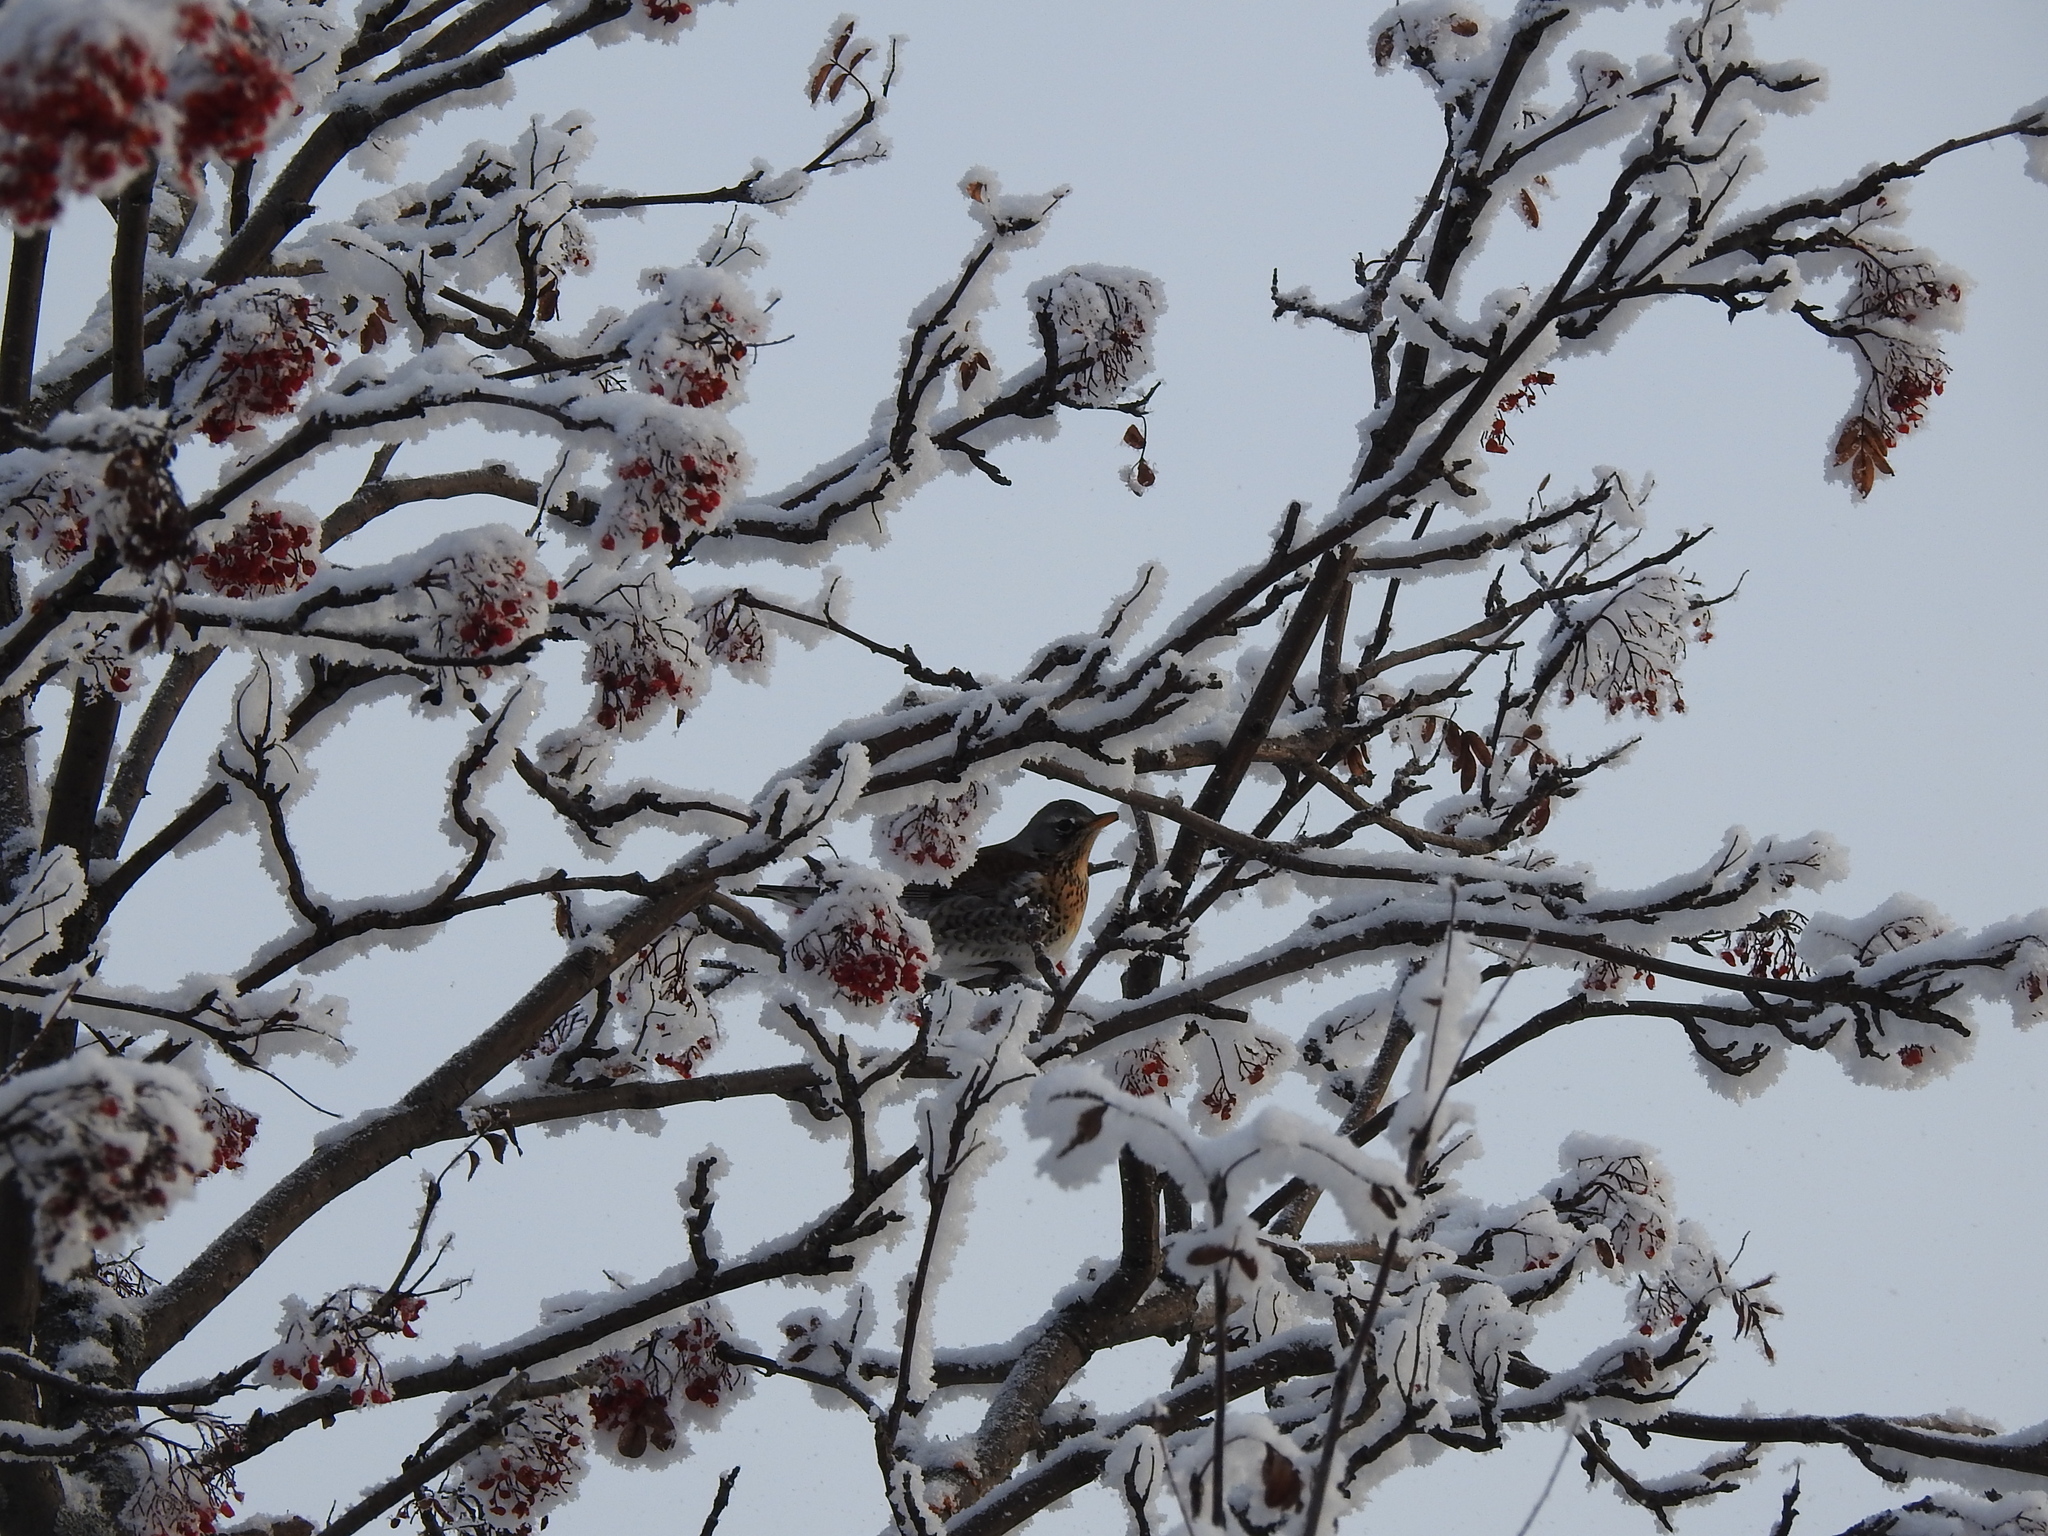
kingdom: Animalia
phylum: Chordata
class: Aves
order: Passeriformes
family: Turdidae
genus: Turdus
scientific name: Turdus pilaris
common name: Fieldfare
